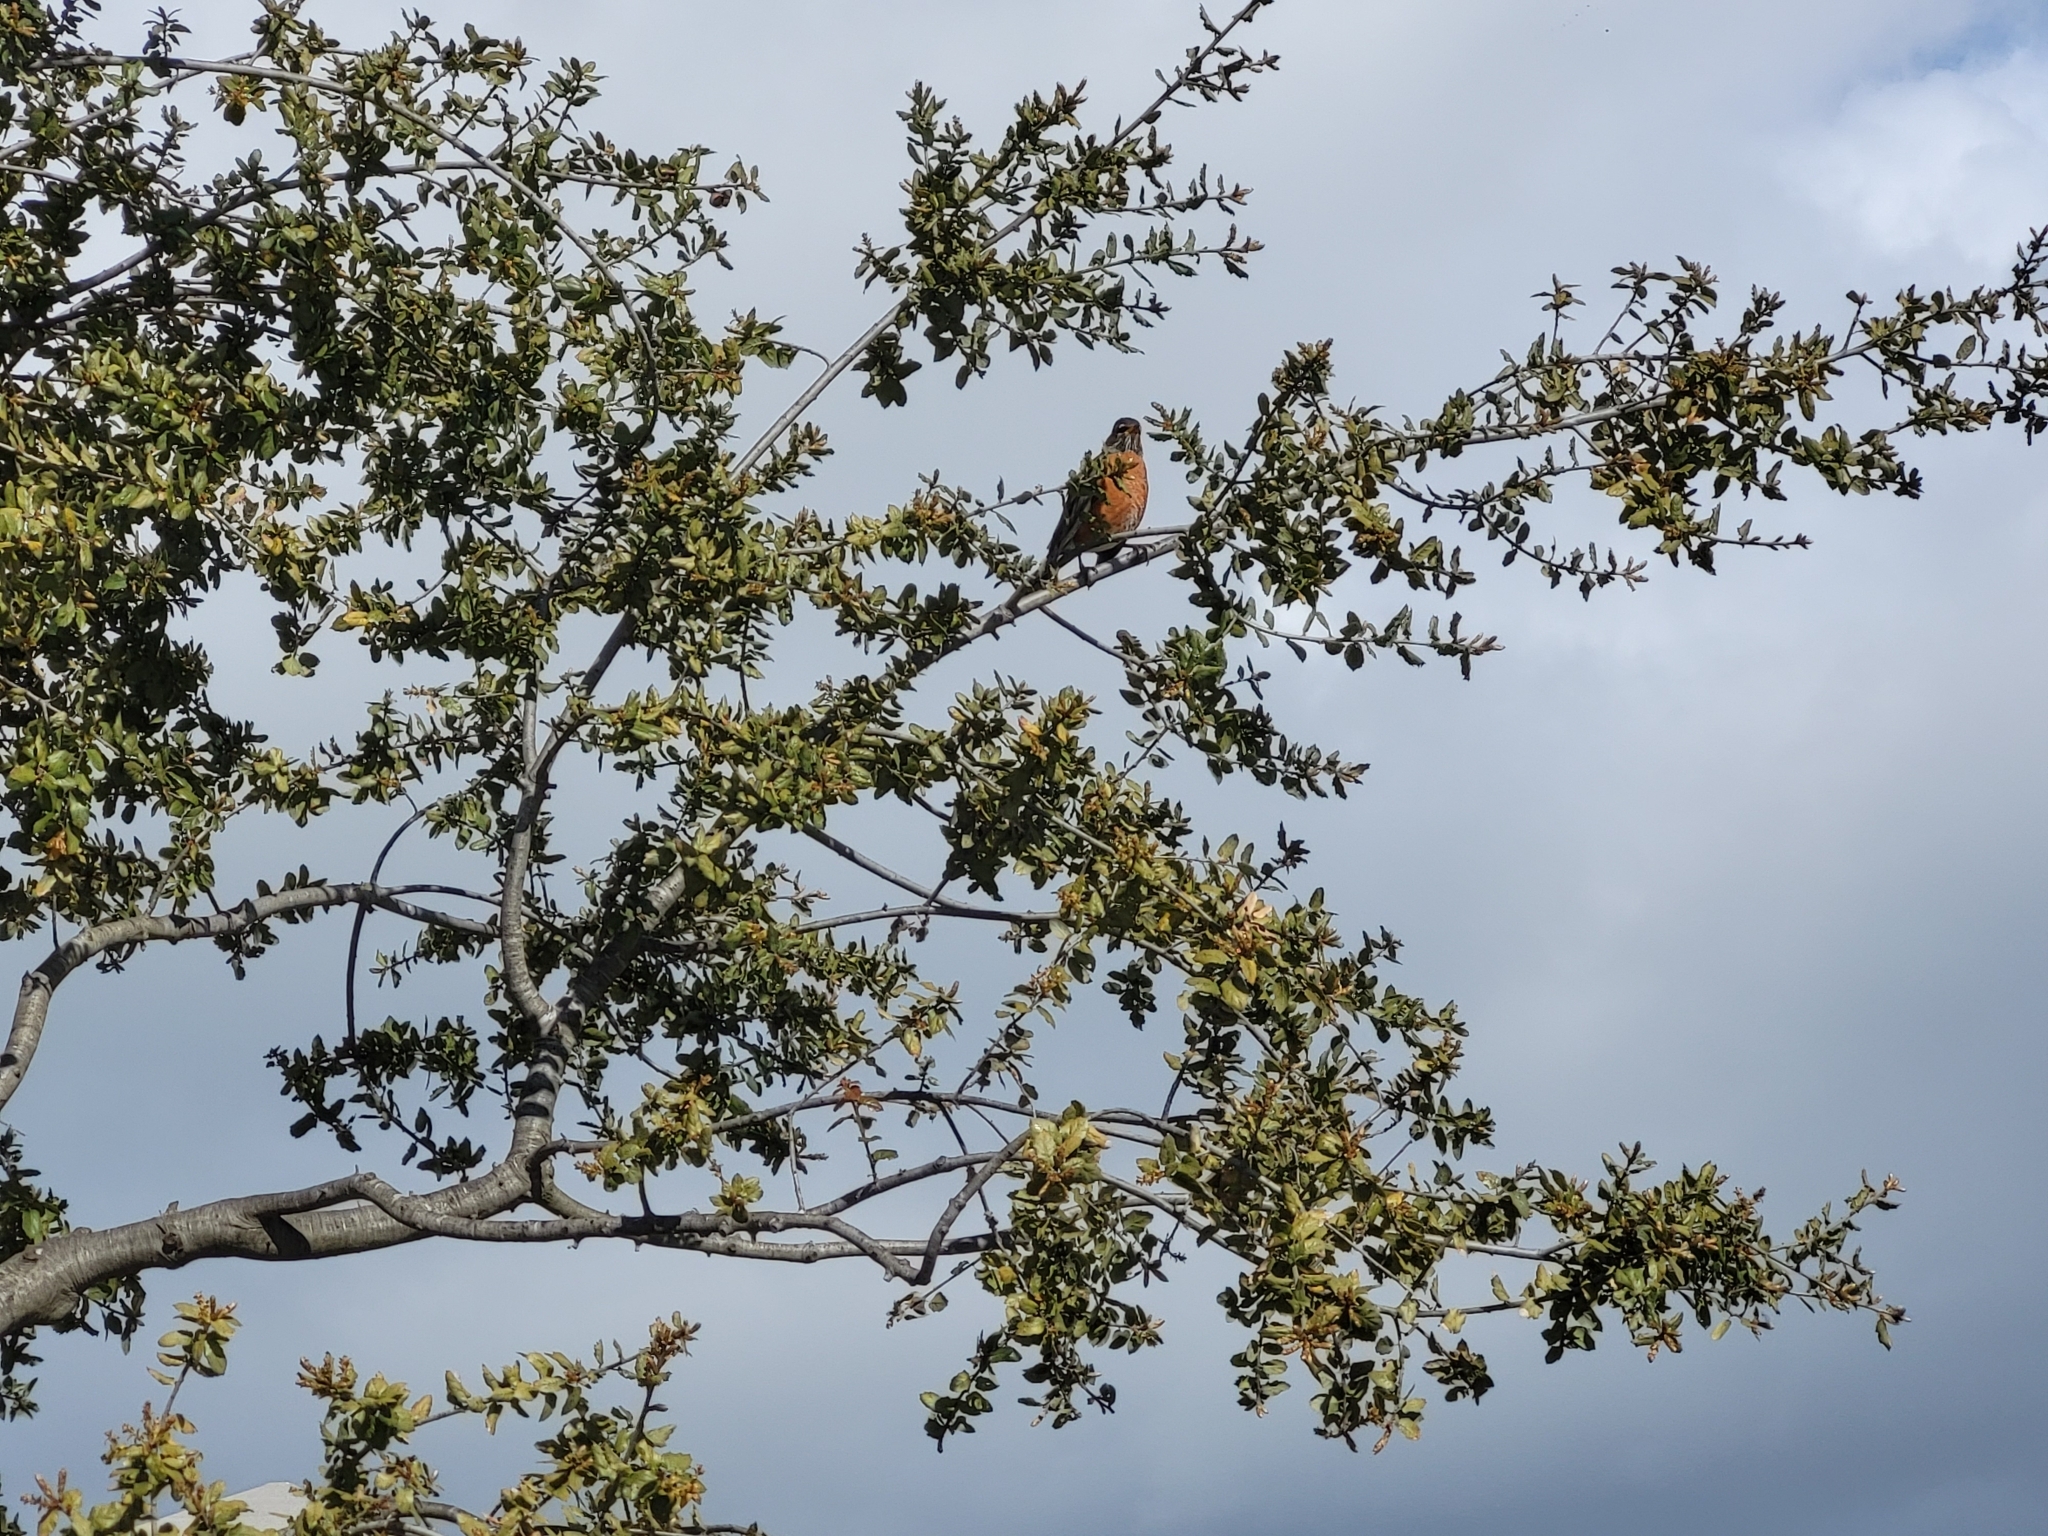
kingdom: Animalia
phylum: Chordata
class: Aves
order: Passeriformes
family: Turdidae
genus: Turdus
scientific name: Turdus migratorius
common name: American robin
